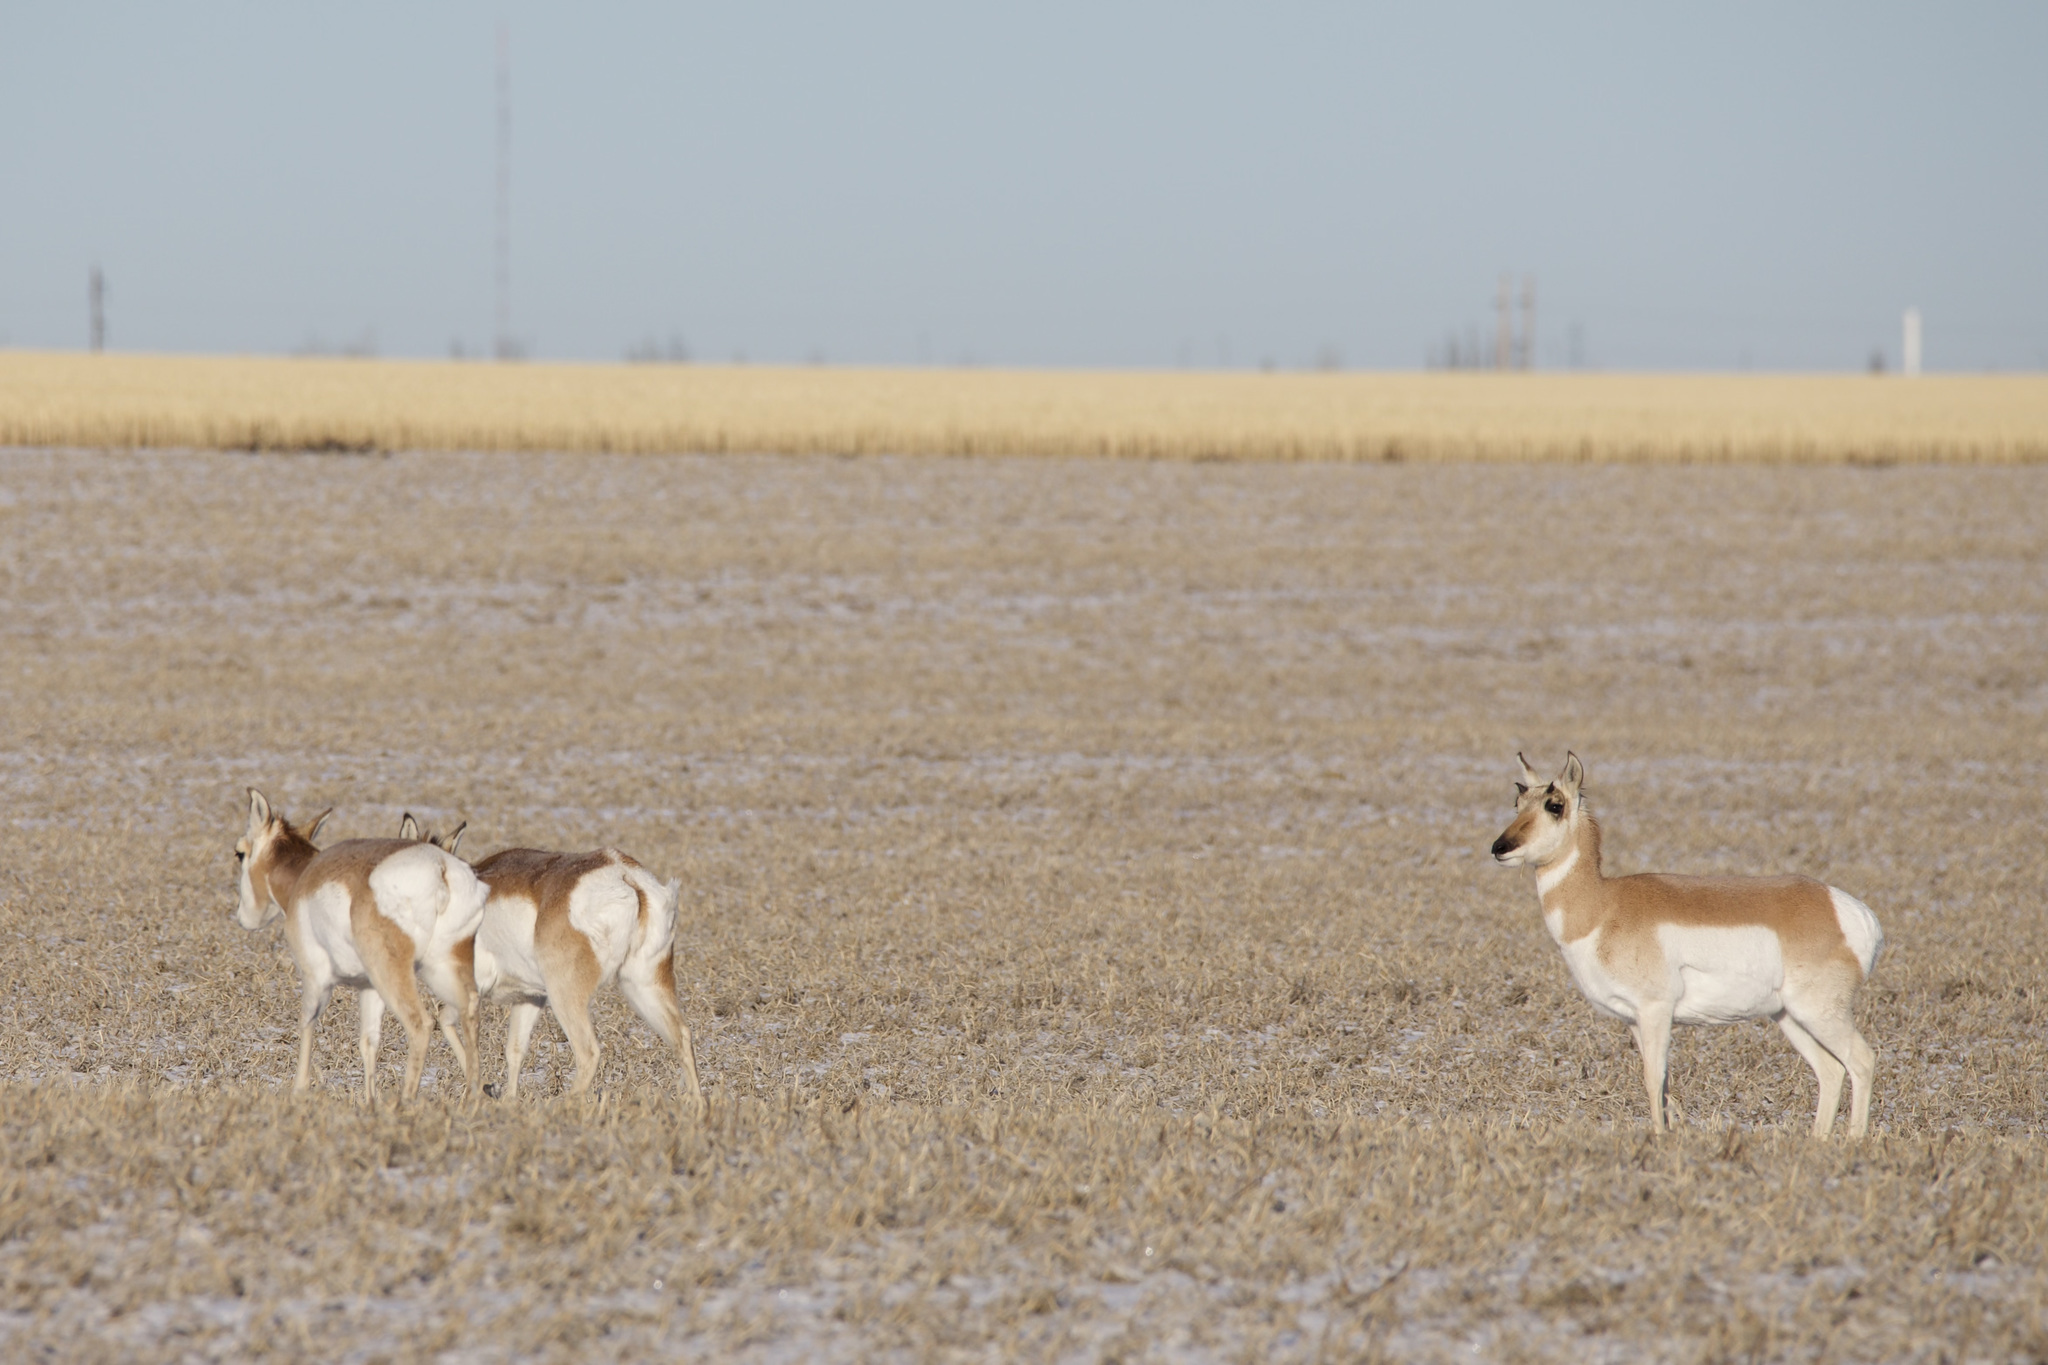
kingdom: Animalia
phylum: Chordata
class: Mammalia
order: Artiodactyla
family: Antilocapridae
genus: Antilocapra
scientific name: Antilocapra americana
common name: Pronghorn
